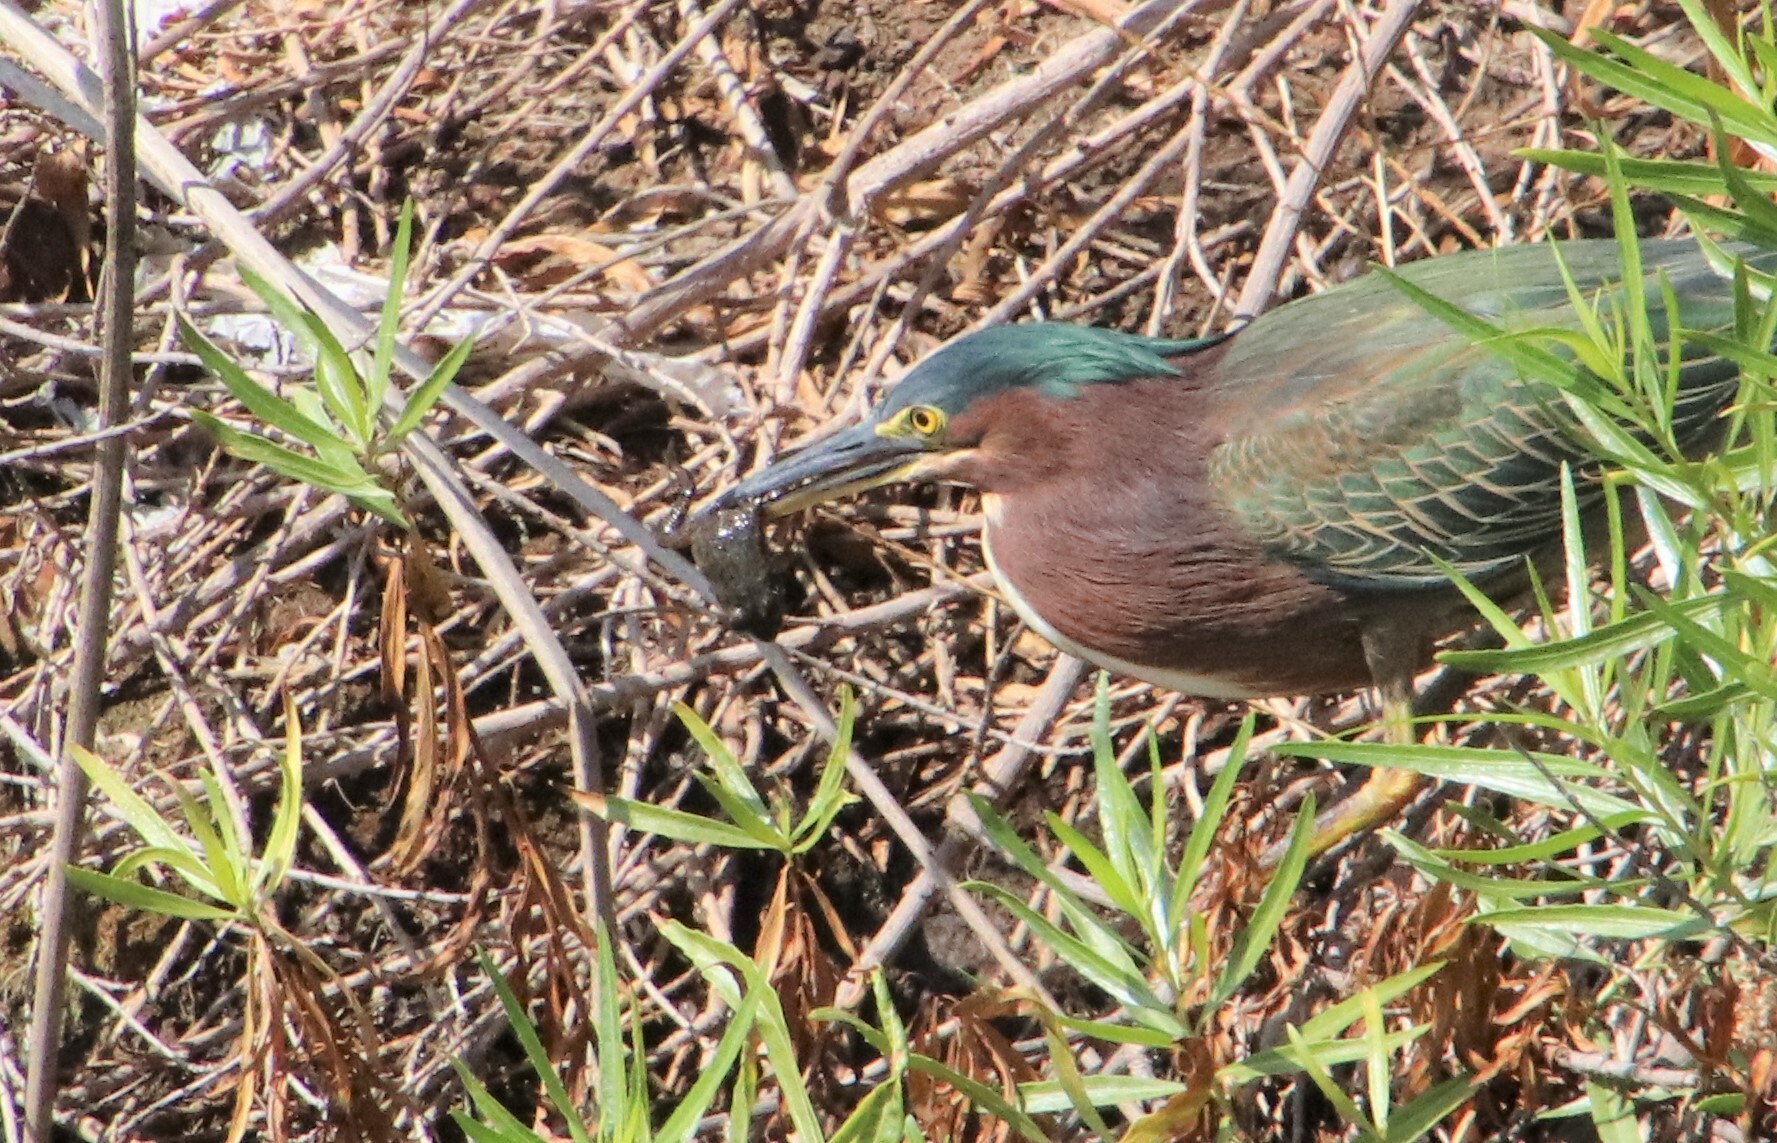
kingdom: Animalia
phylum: Chordata
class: Amphibia
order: Anura
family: Ranidae
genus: Lithobates
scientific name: Lithobates catesbeianus
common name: American bullfrog
